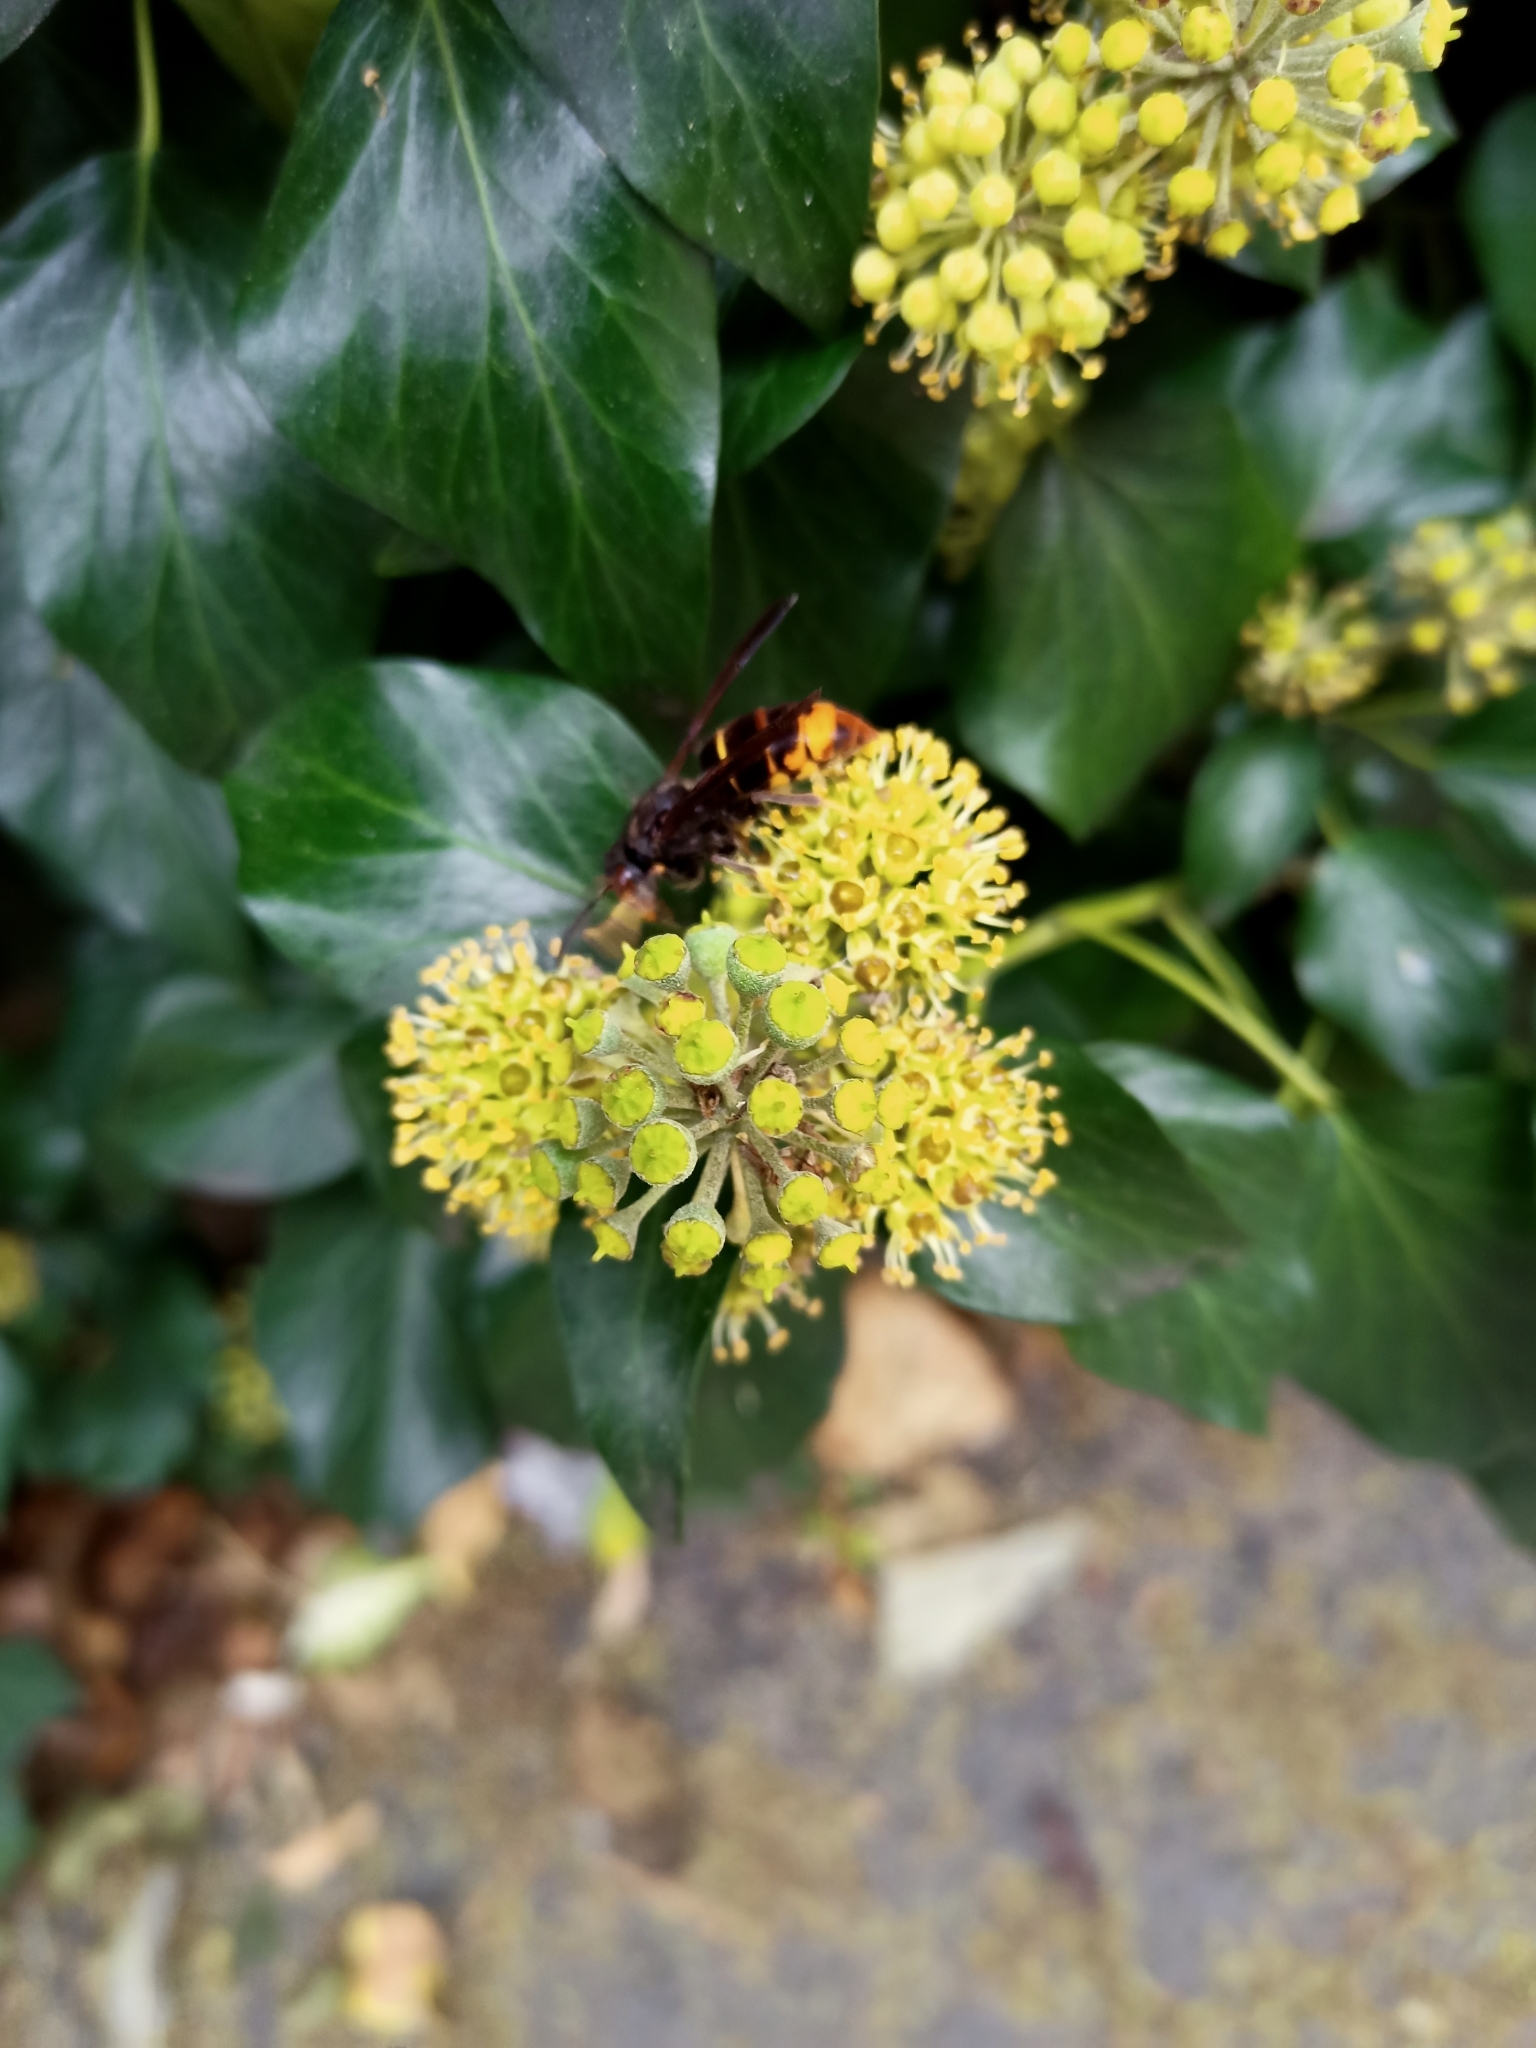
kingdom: Animalia
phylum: Arthropoda
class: Insecta
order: Hymenoptera
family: Vespidae
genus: Vespa
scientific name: Vespa velutina
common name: Asian hornet
